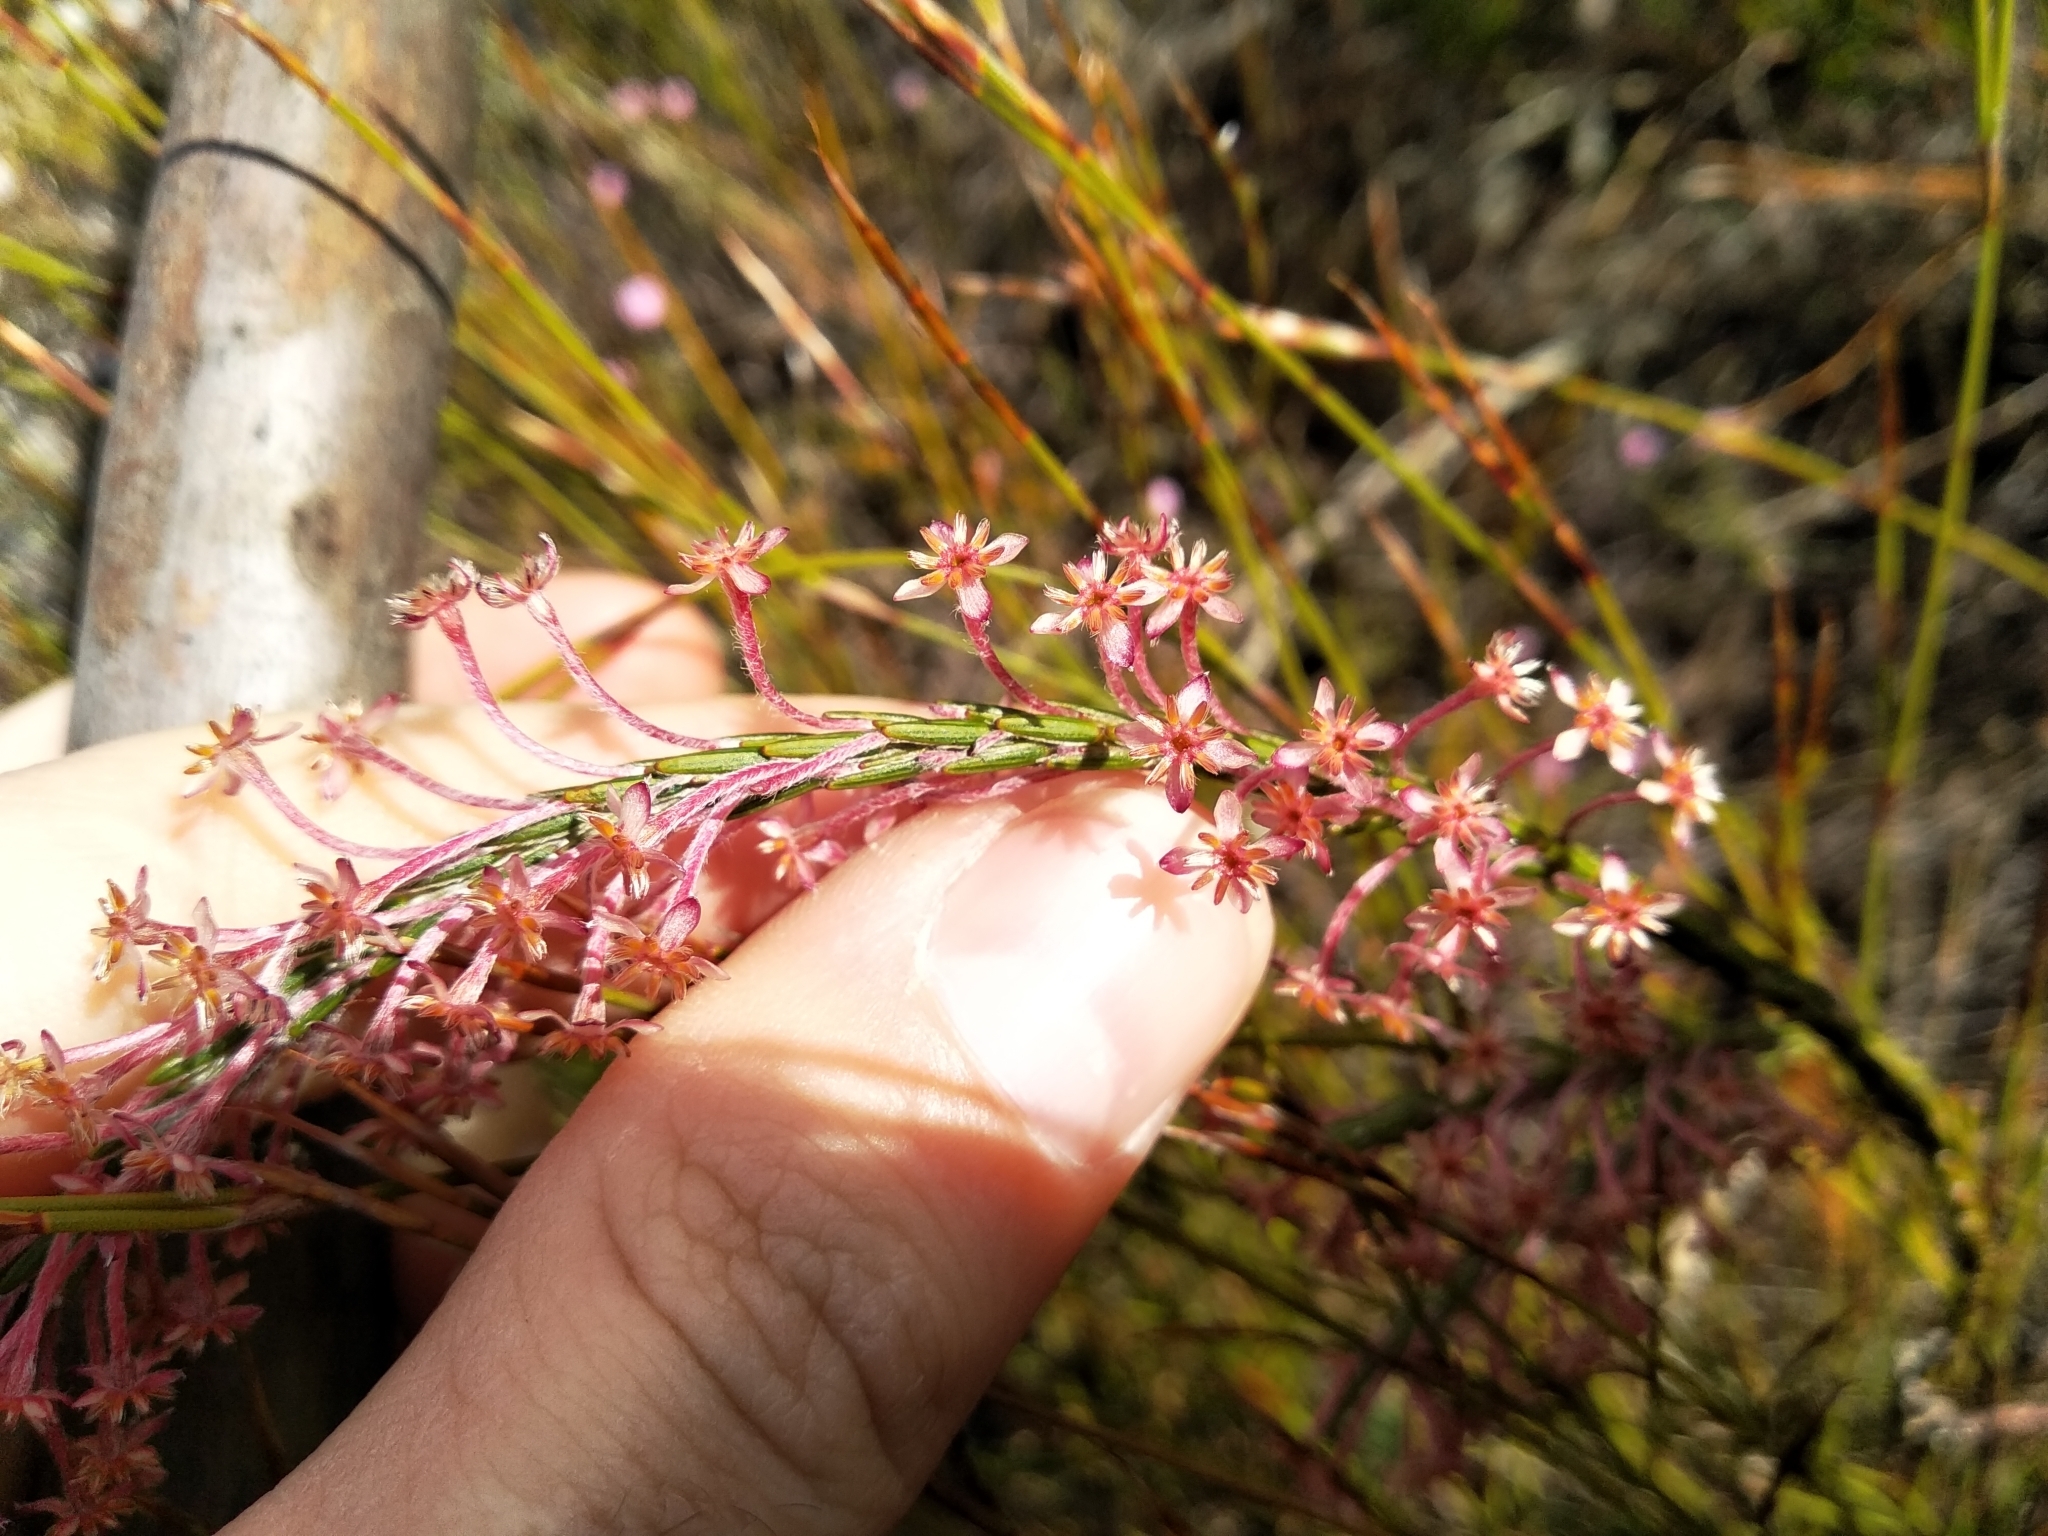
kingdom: Plantae
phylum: Tracheophyta
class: Magnoliopsida
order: Malvales
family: Thymelaeaceae
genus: Struthiola
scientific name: Struthiola ciliata
